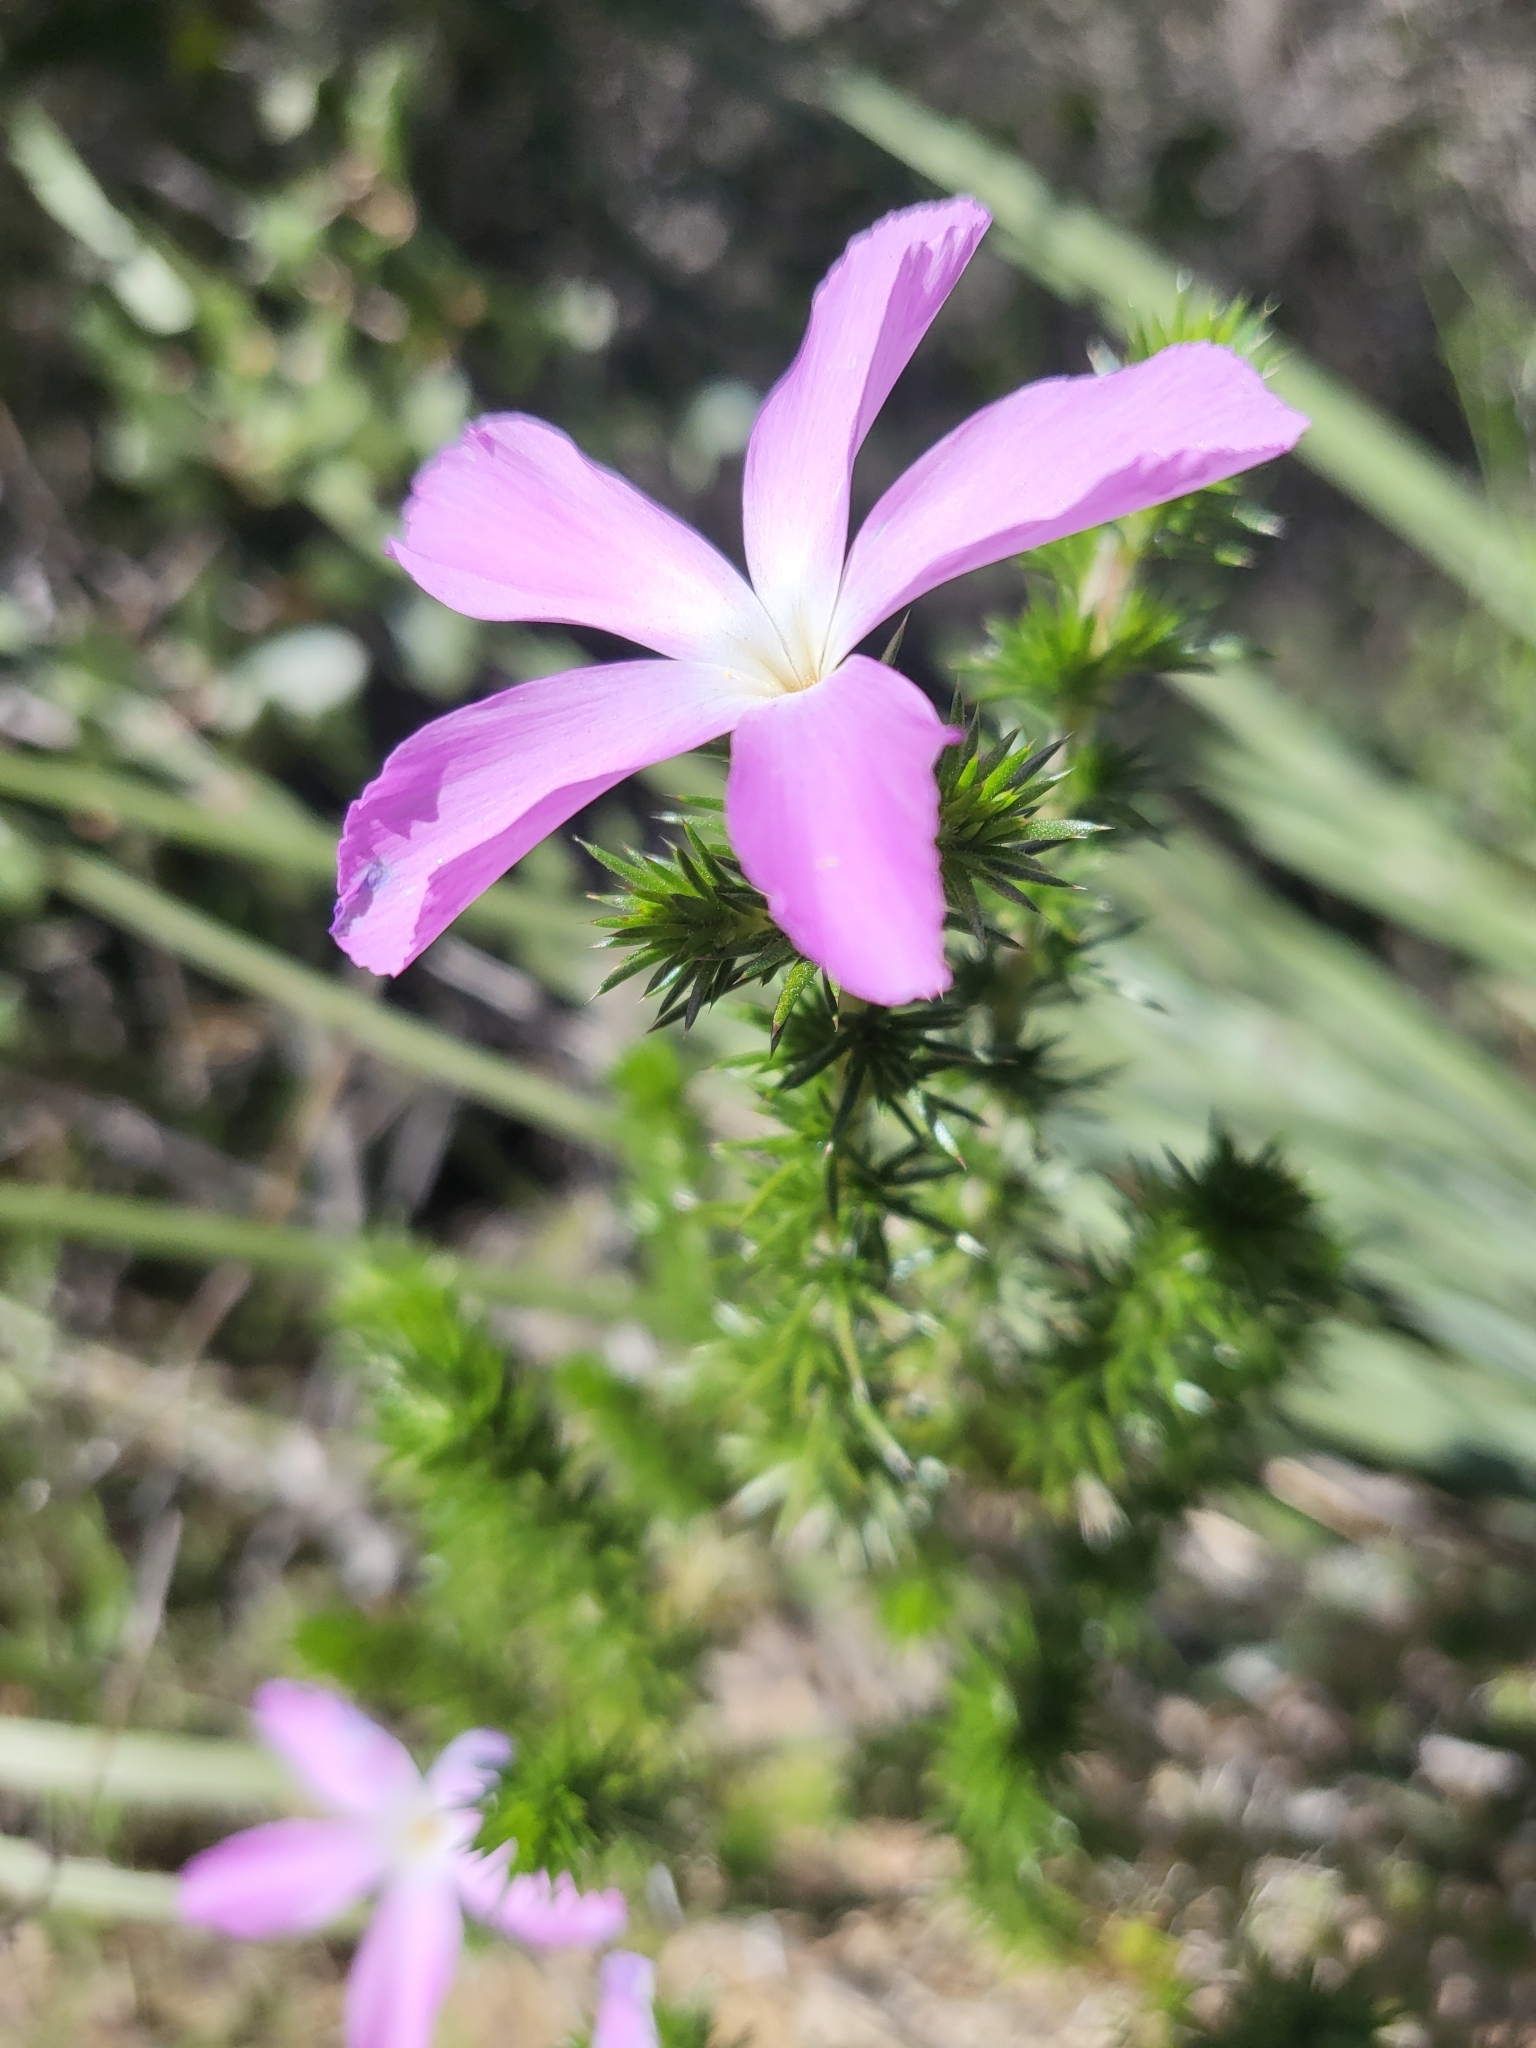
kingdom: Plantae
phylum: Tracheophyta
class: Magnoliopsida
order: Ericales
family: Polemoniaceae
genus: Linanthus
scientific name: Linanthus californicus
